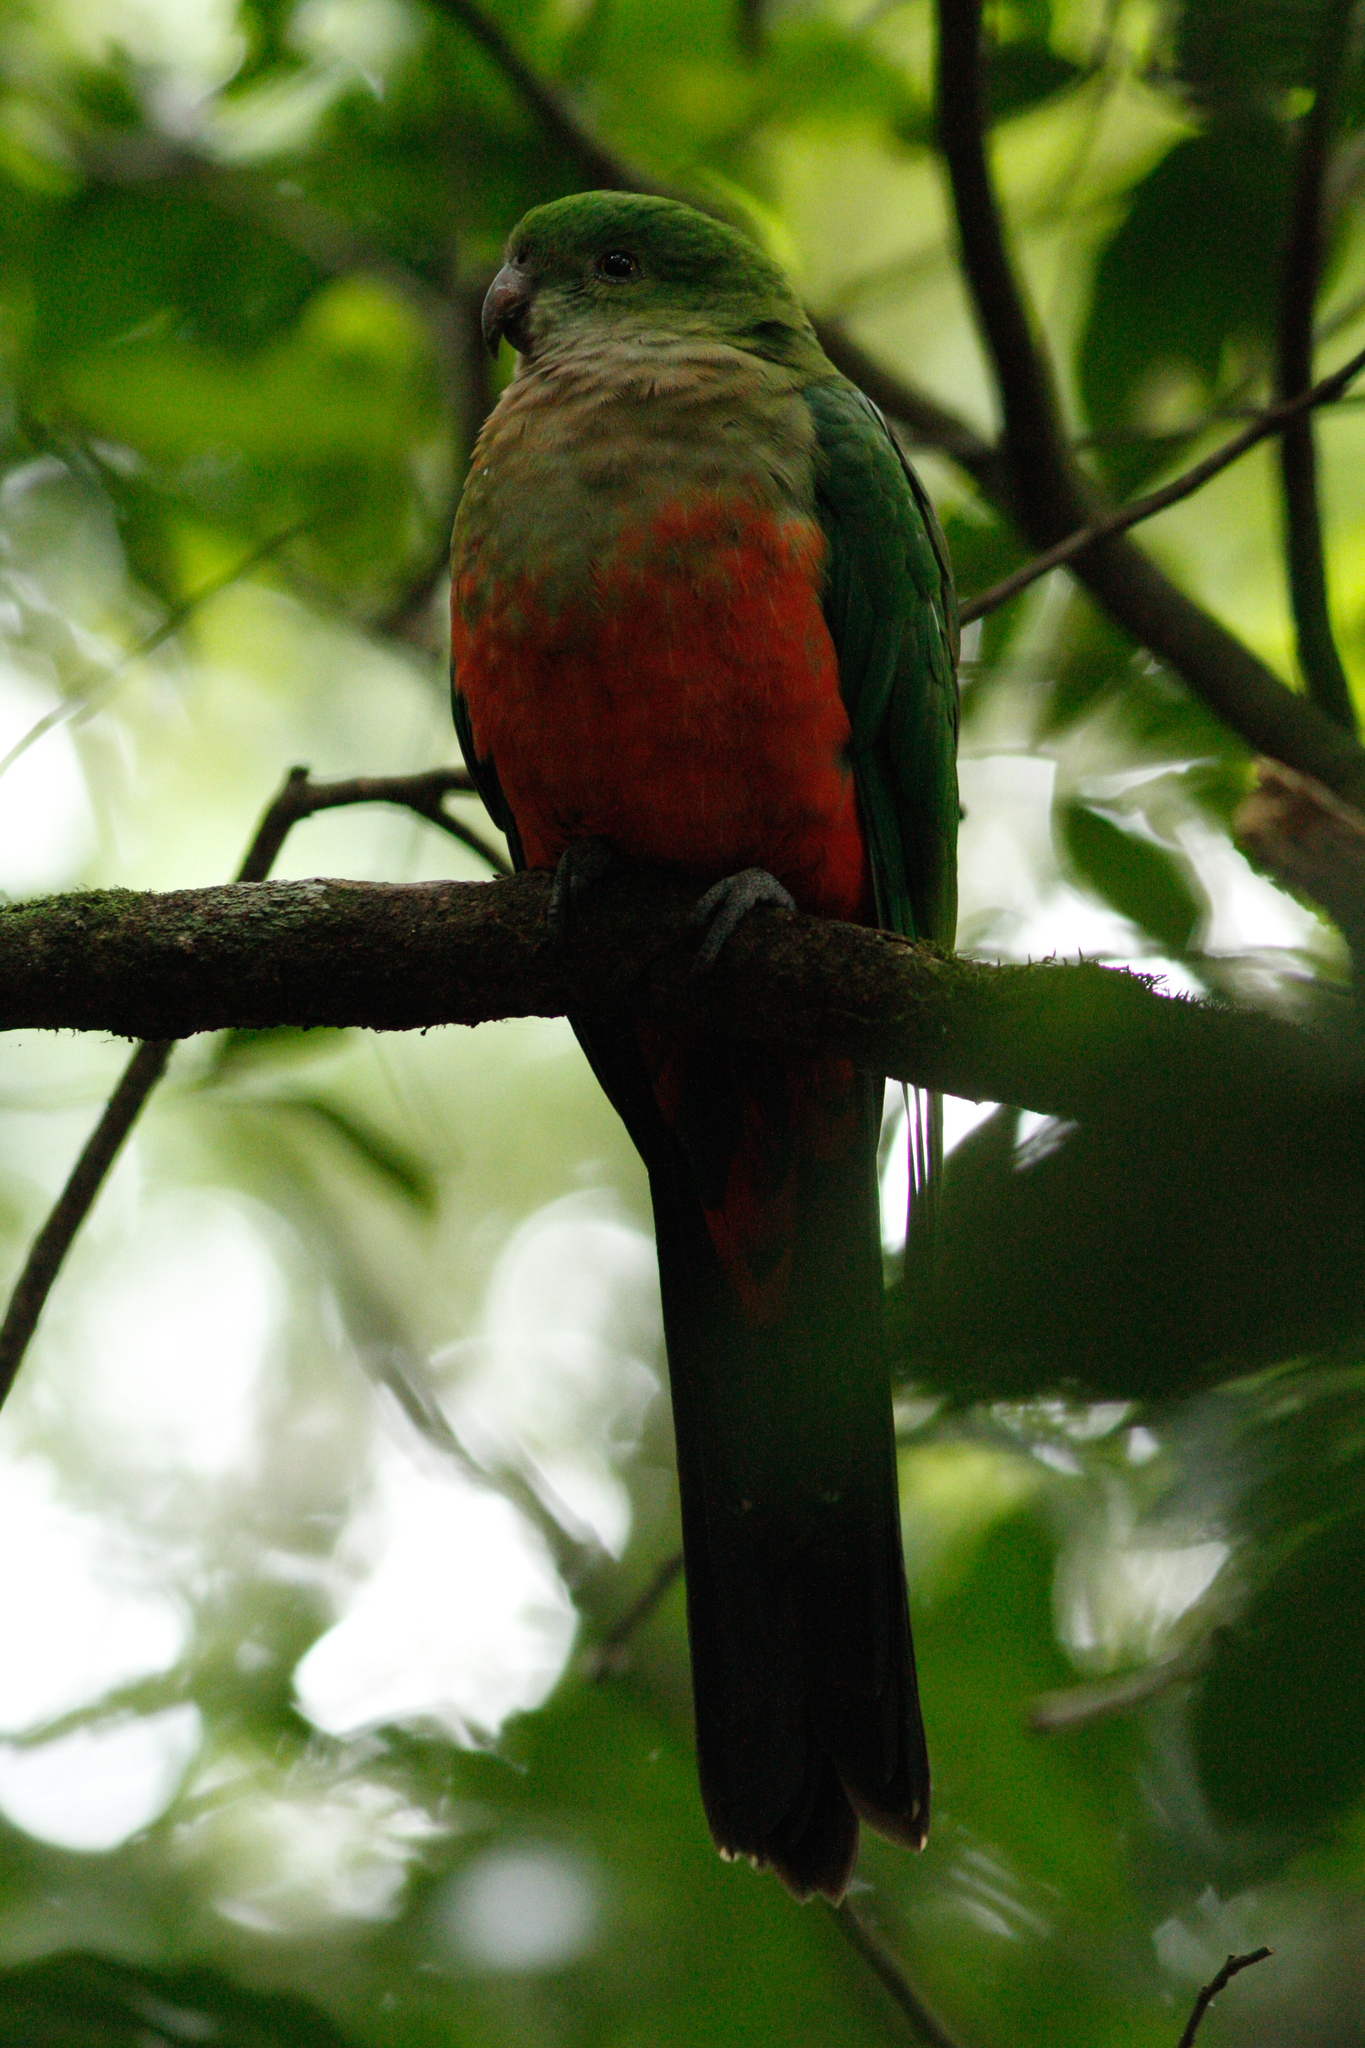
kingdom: Animalia
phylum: Chordata
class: Aves
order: Psittaciformes
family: Psittacidae
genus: Alisterus
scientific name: Alisterus scapularis
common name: Australian king parrot
